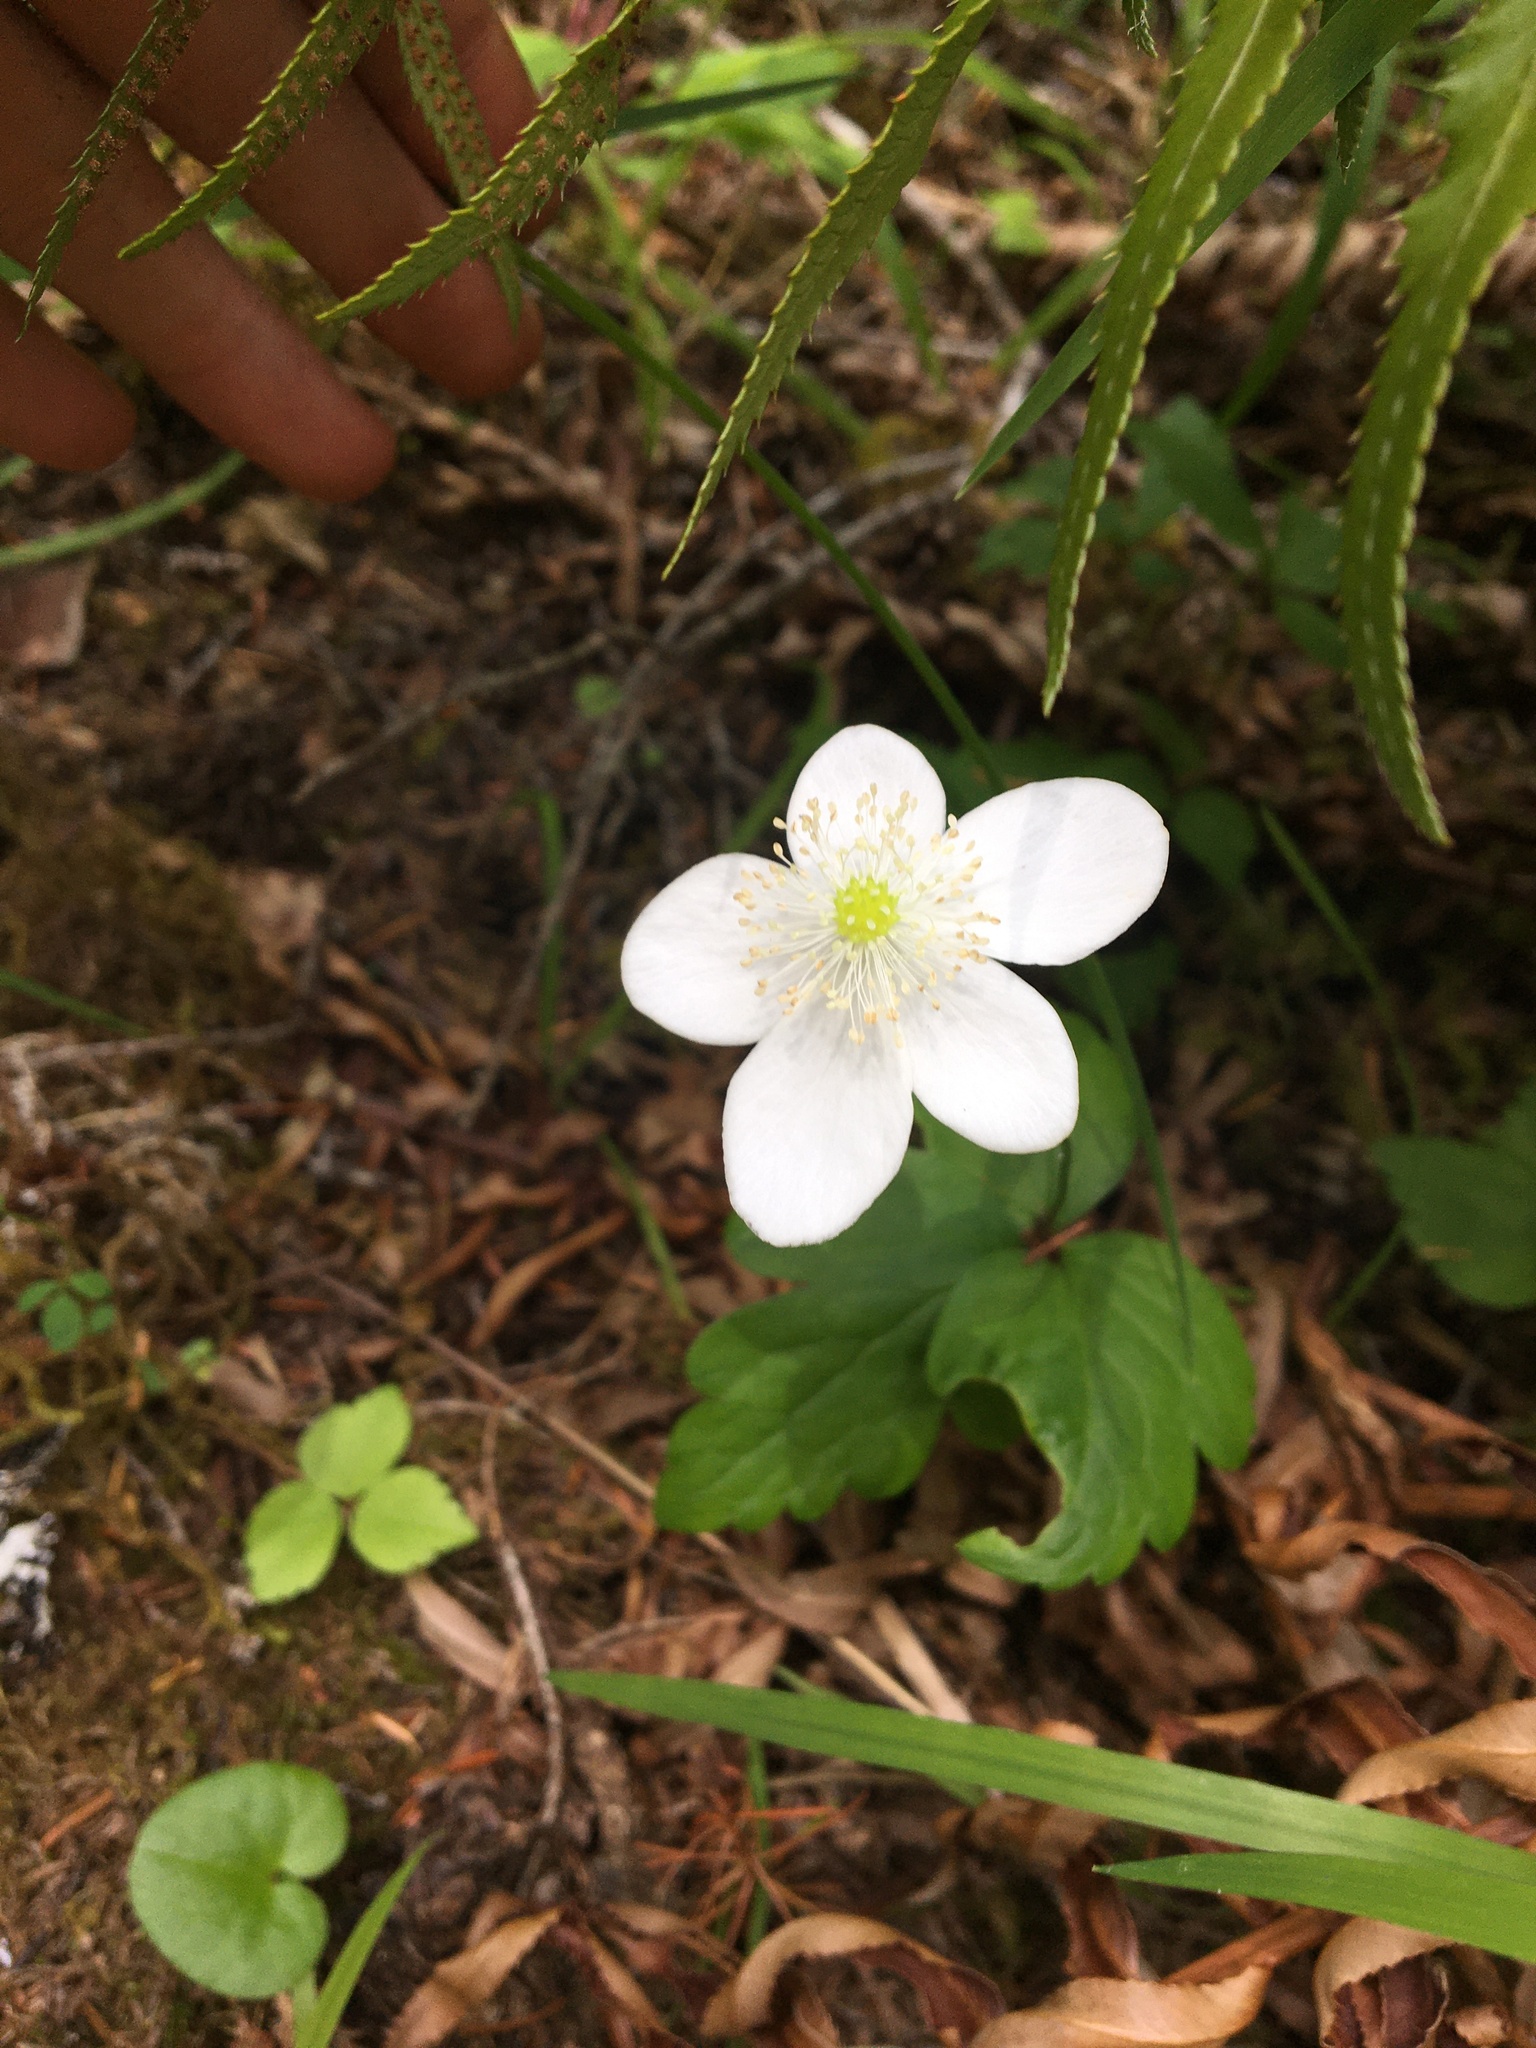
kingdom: Plantae
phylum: Tracheophyta
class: Magnoliopsida
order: Ranunculales
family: Ranunculaceae
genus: Anemonastrum
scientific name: Anemonastrum deltoideum
